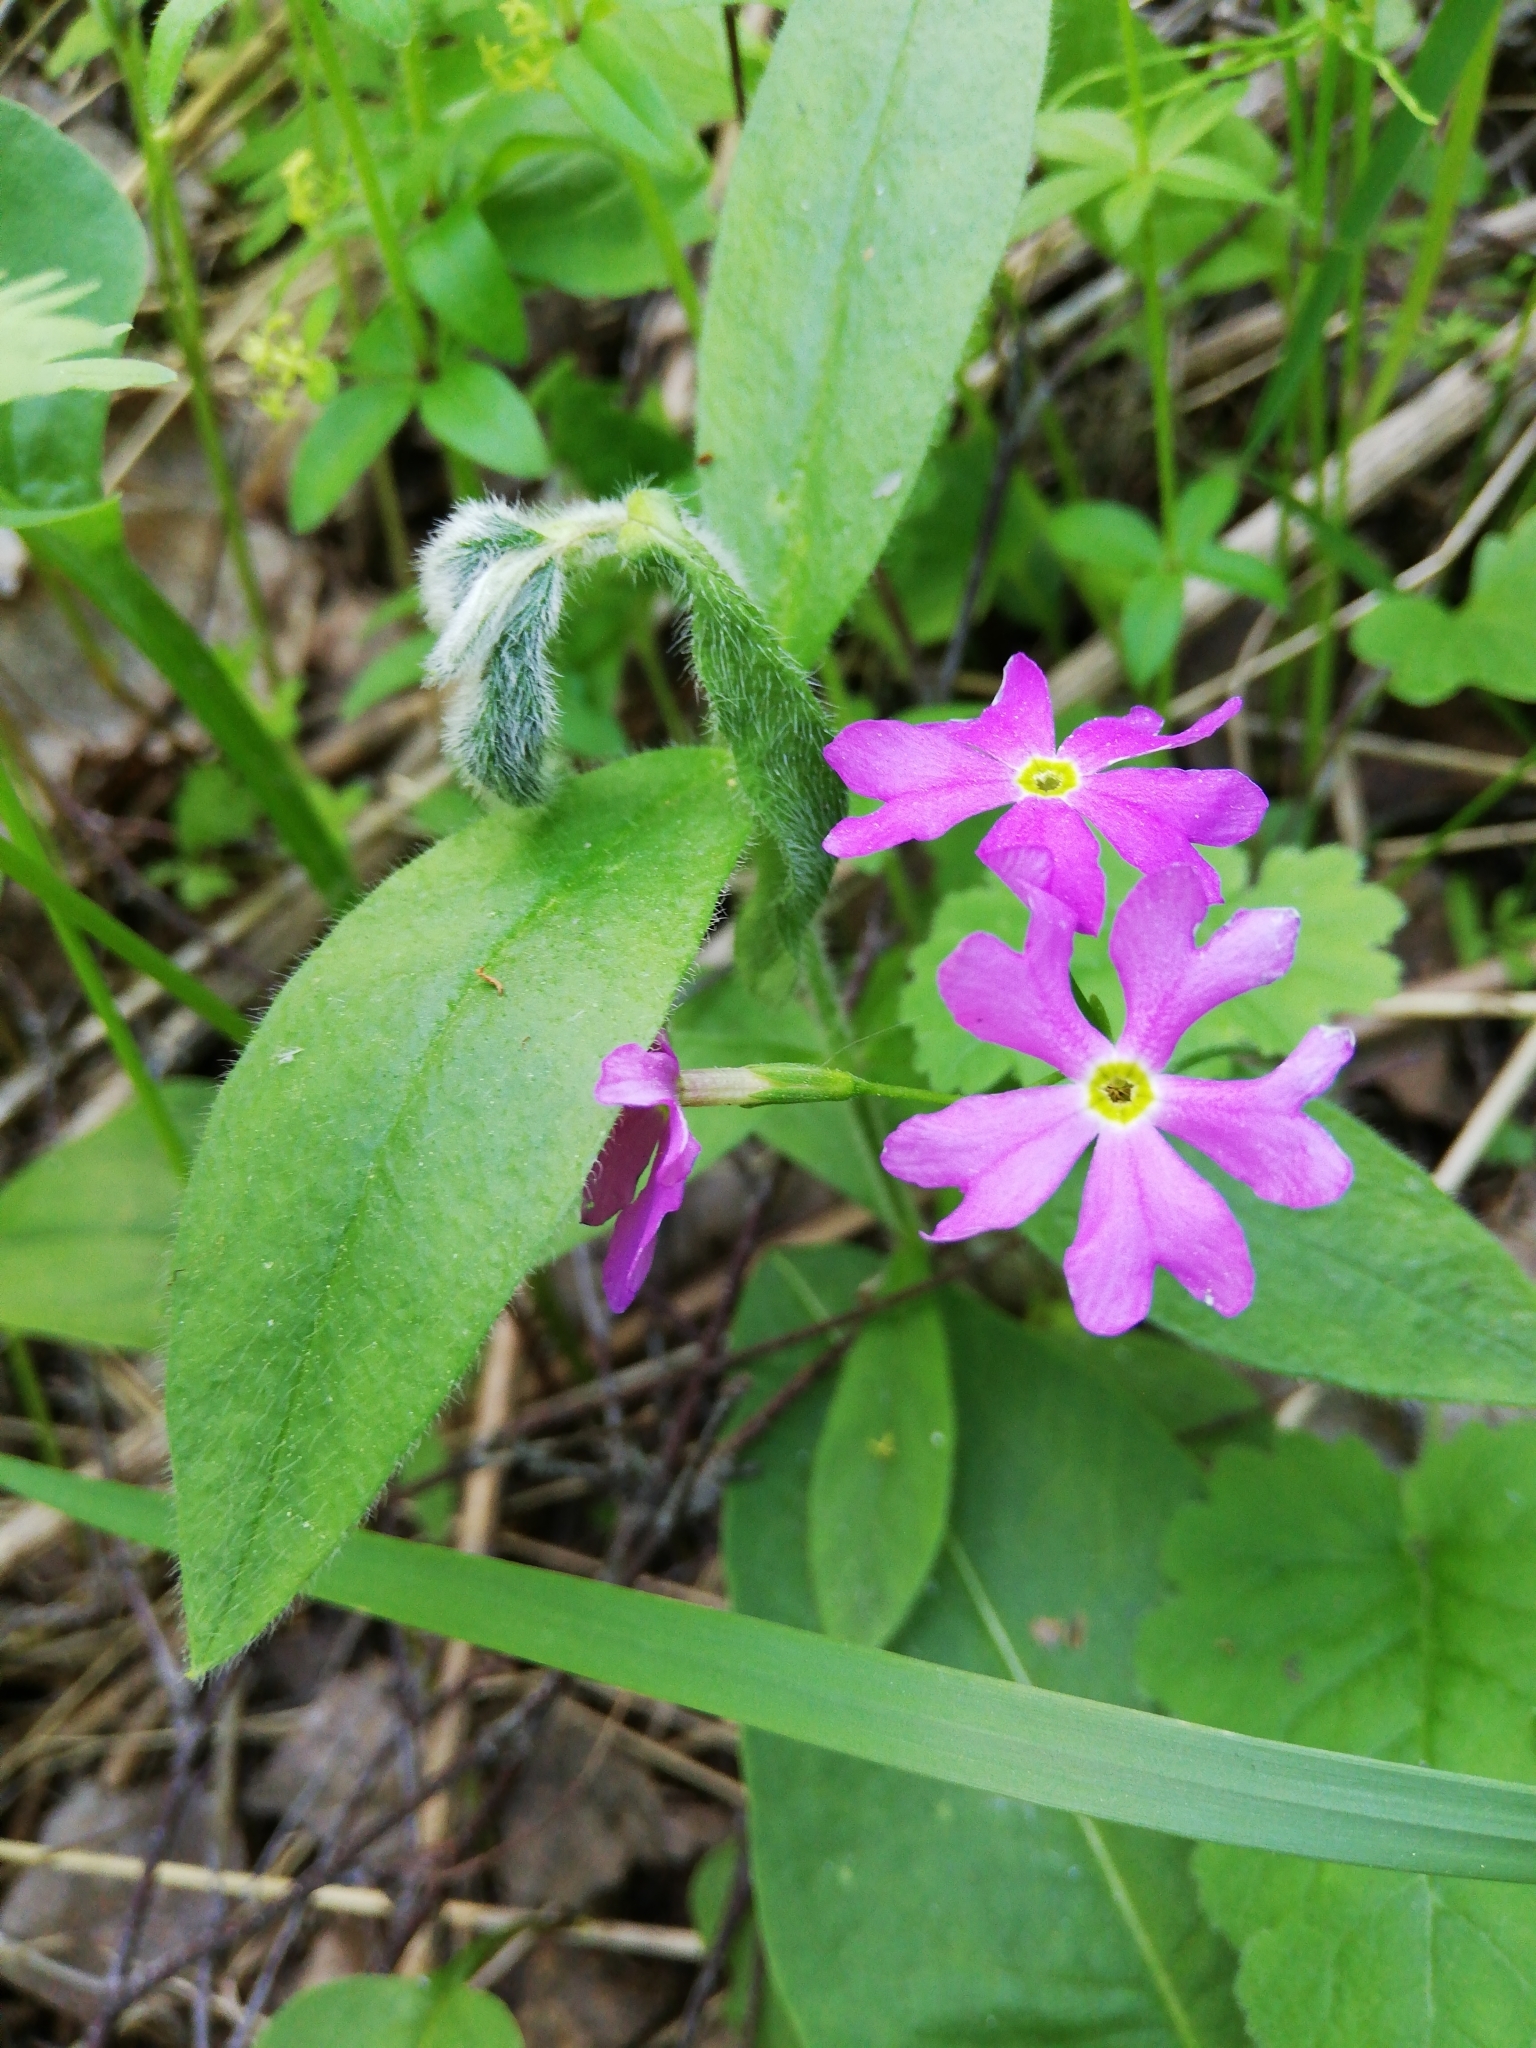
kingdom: Plantae
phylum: Tracheophyta
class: Magnoliopsida
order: Ericales
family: Primulaceae
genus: Primula
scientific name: Primula cortusoides
